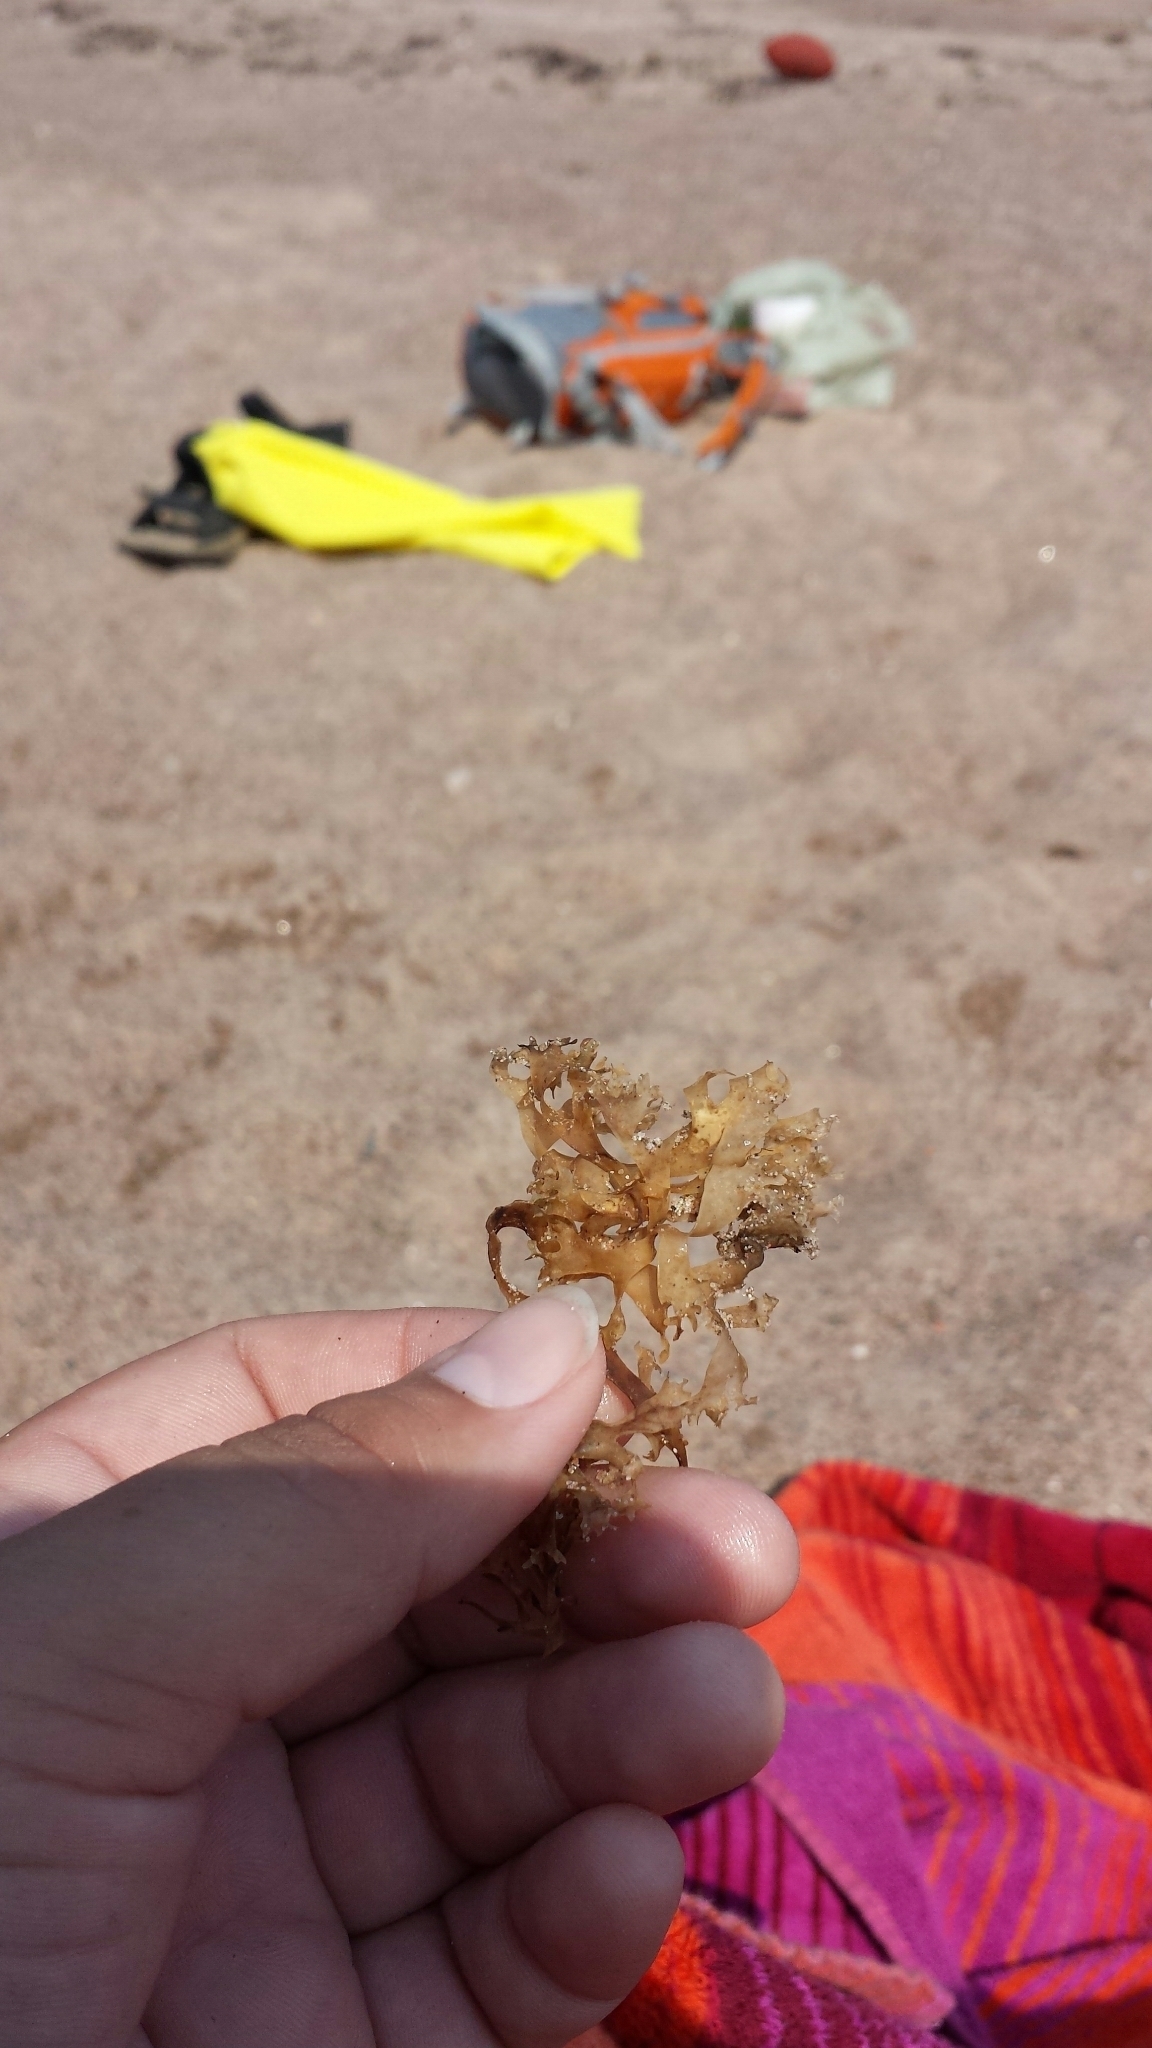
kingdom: Plantae
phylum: Rhodophyta
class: Florideophyceae
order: Gigartinales
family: Gigartinaceae
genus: Chondrus
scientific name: Chondrus crispus
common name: Carrageen
